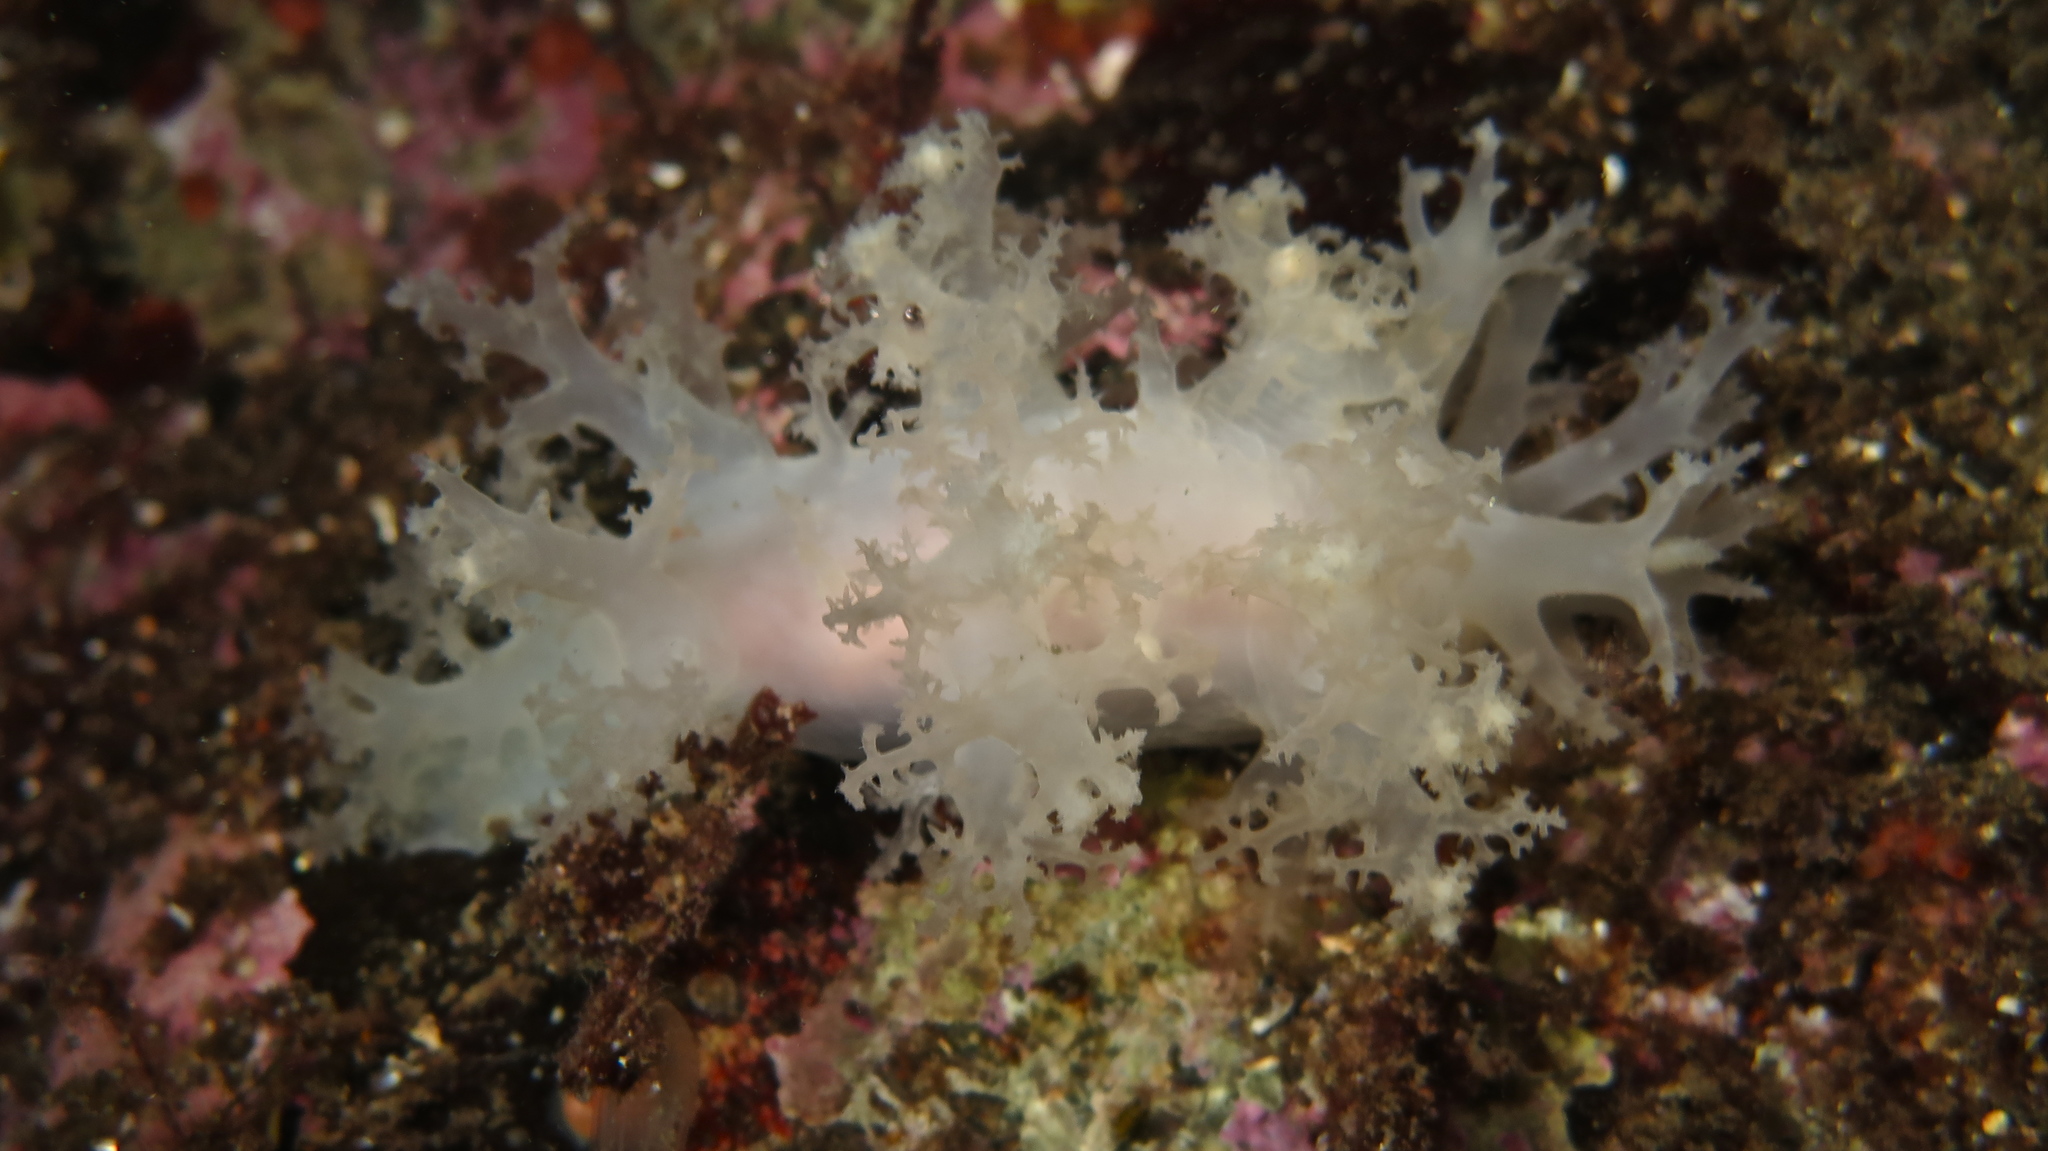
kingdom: Animalia
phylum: Mollusca
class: Gastropoda
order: Nudibranchia
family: Dendronotidae
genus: Dendronotus
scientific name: Dendronotus frondosus
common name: Bushy-backed nudibranch
